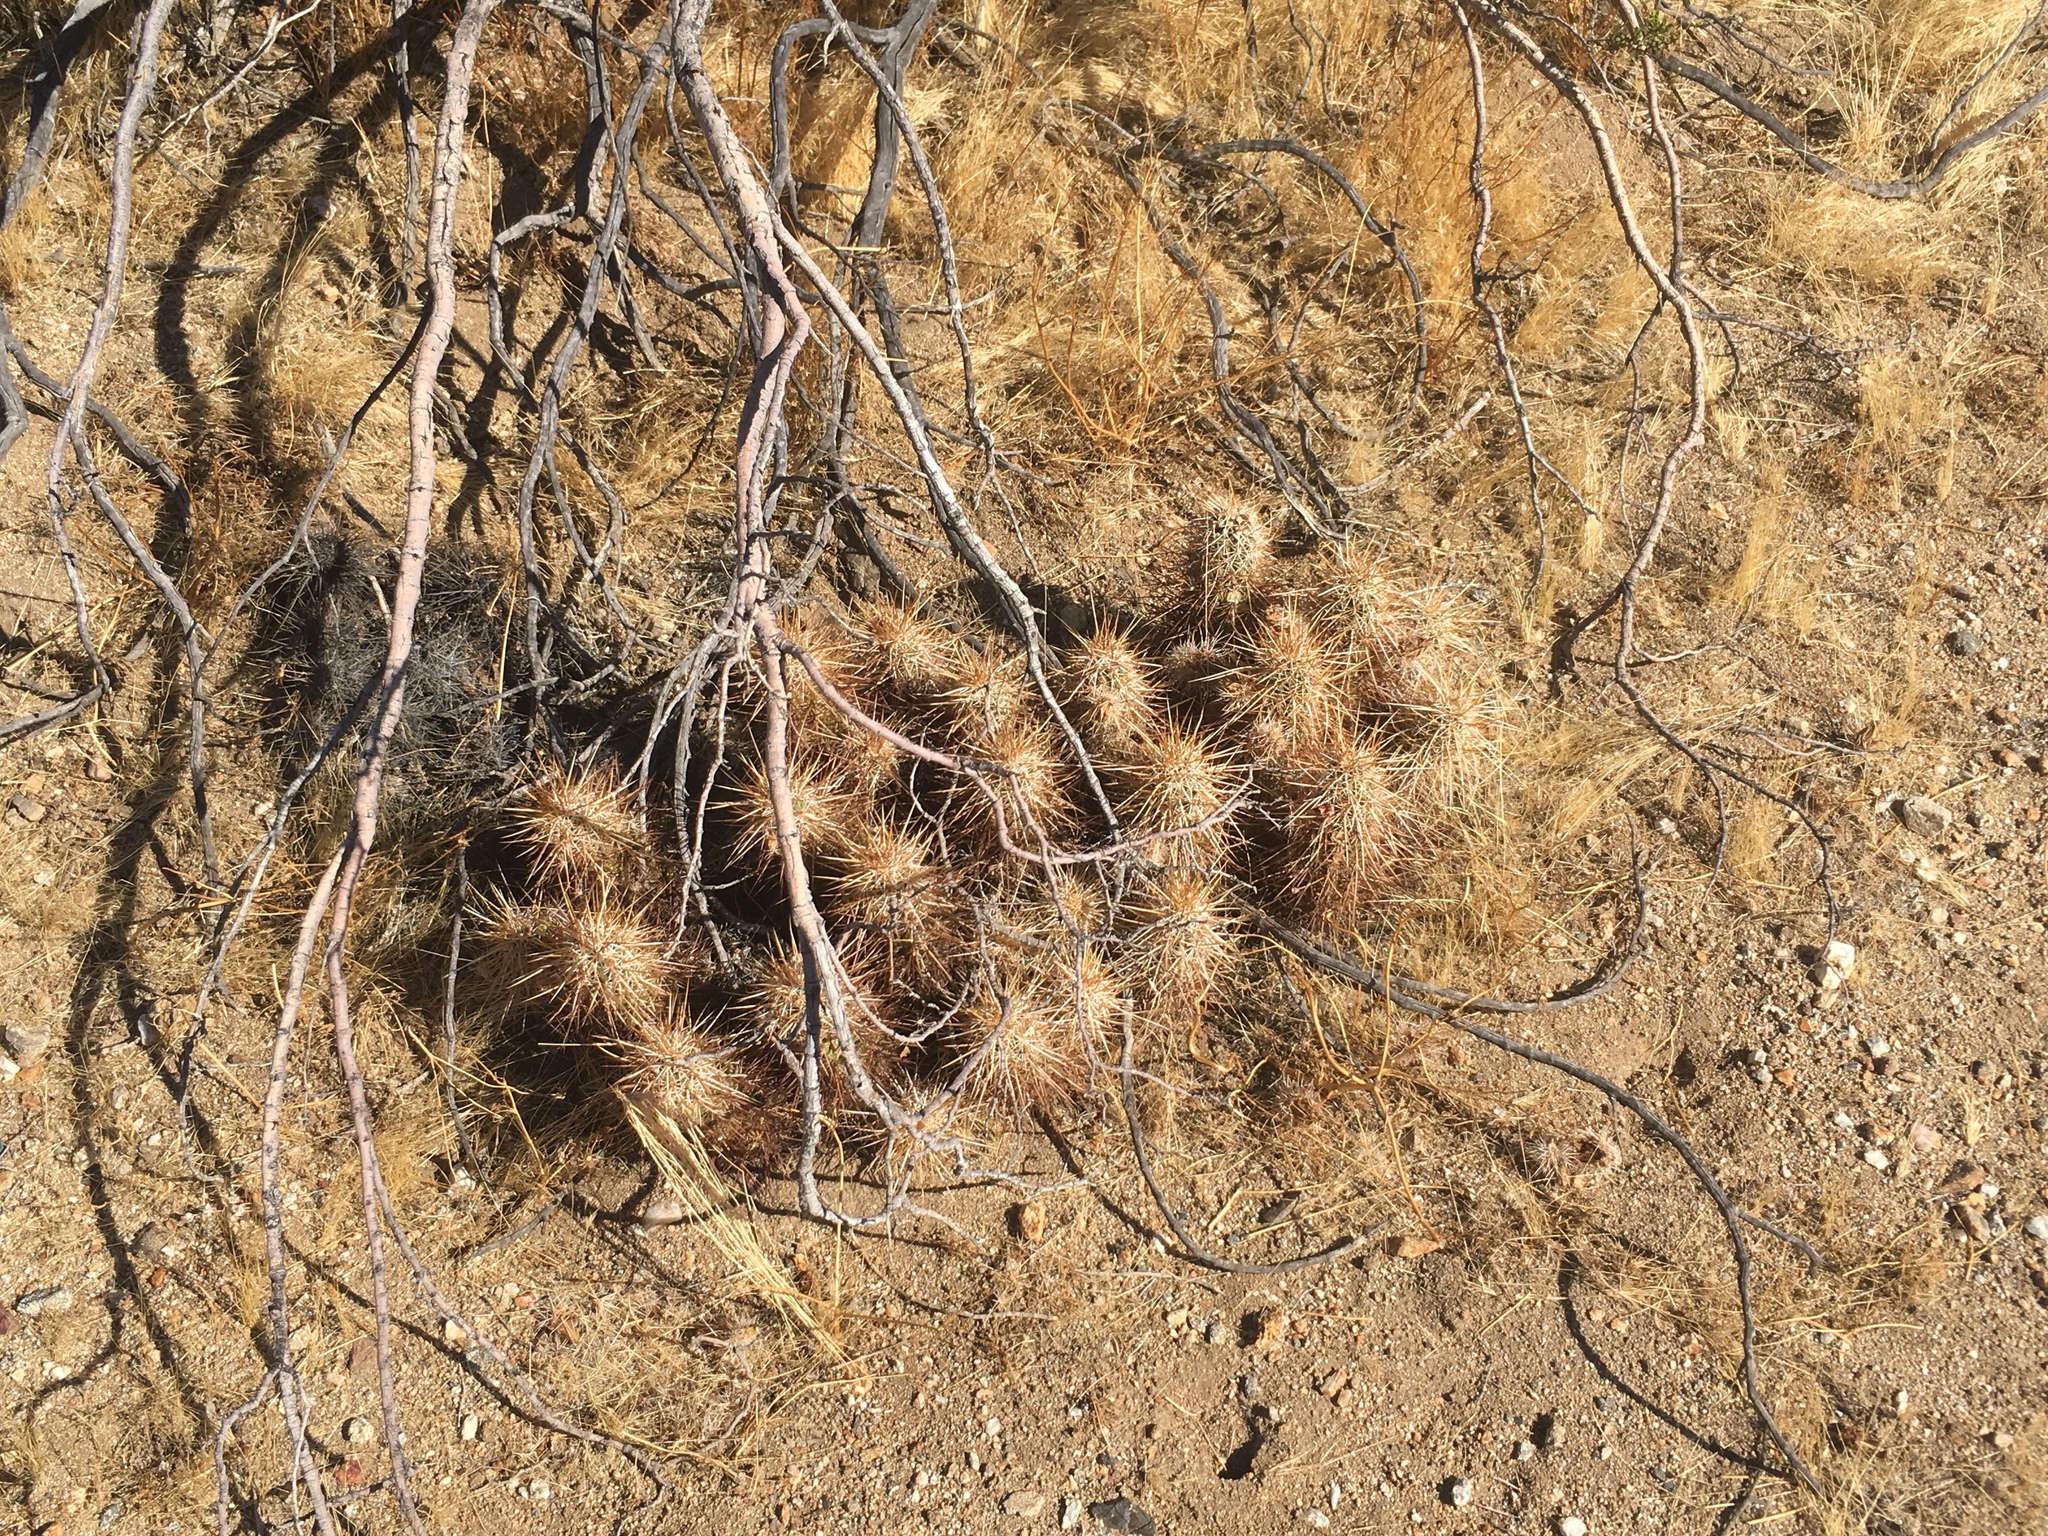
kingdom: Plantae
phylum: Tracheophyta
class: Magnoliopsida
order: Caryophyllales
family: Cactaceae
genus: Echinocereus
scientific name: Echinocereus engelmannii
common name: Engelmann's hedgehog cactus
